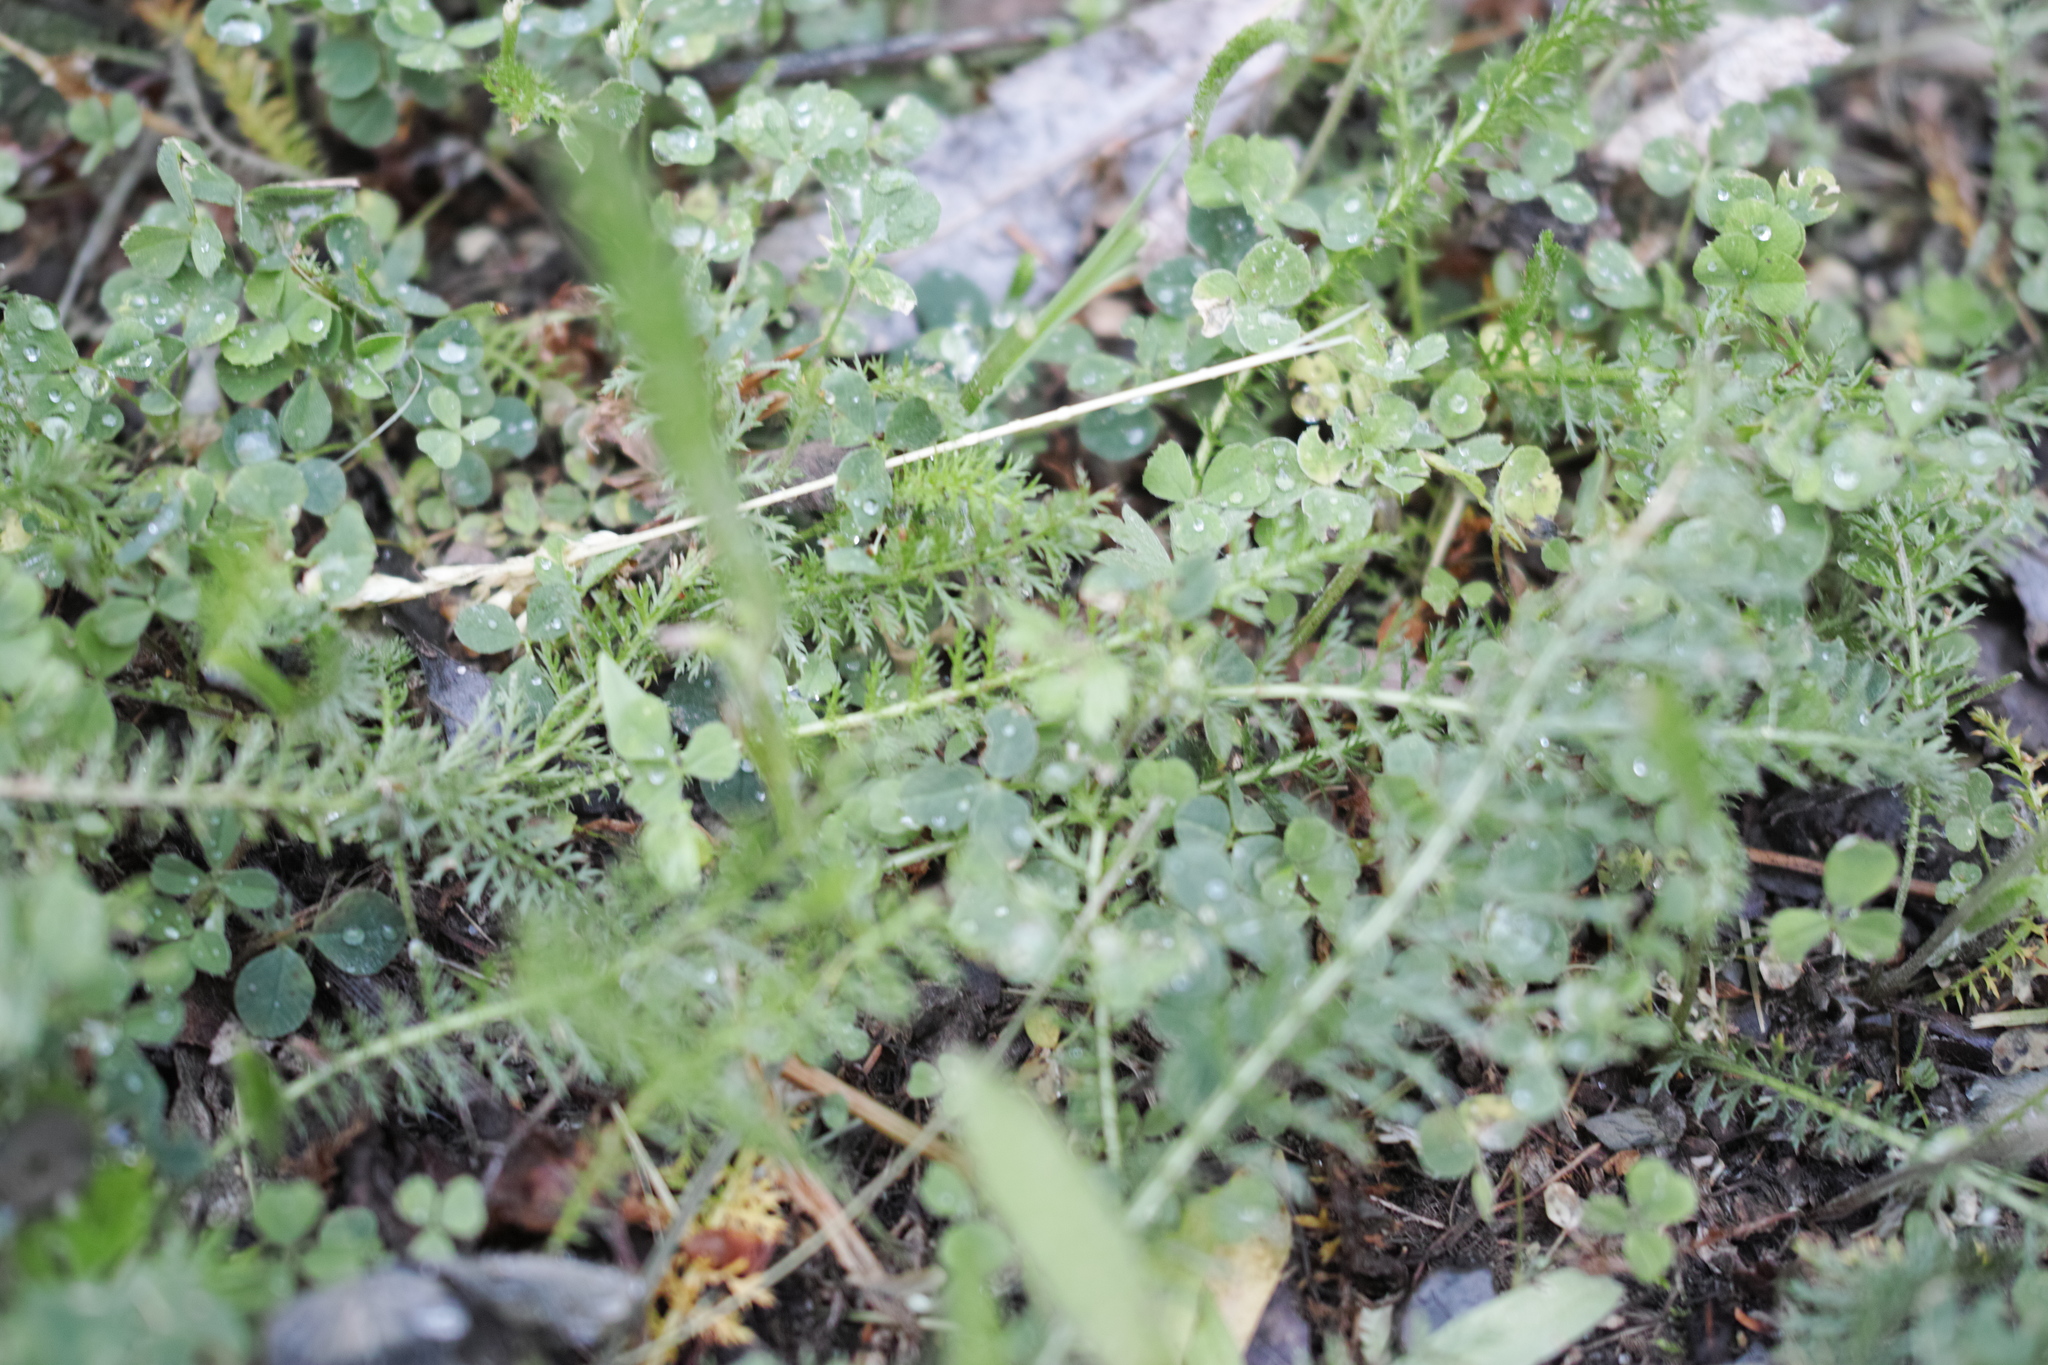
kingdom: Plantae
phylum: Tracheophyta
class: Magnoliopsida
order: Asterales
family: Asteraceae
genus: Achillea
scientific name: Achillea millefolium
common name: Yarrow
